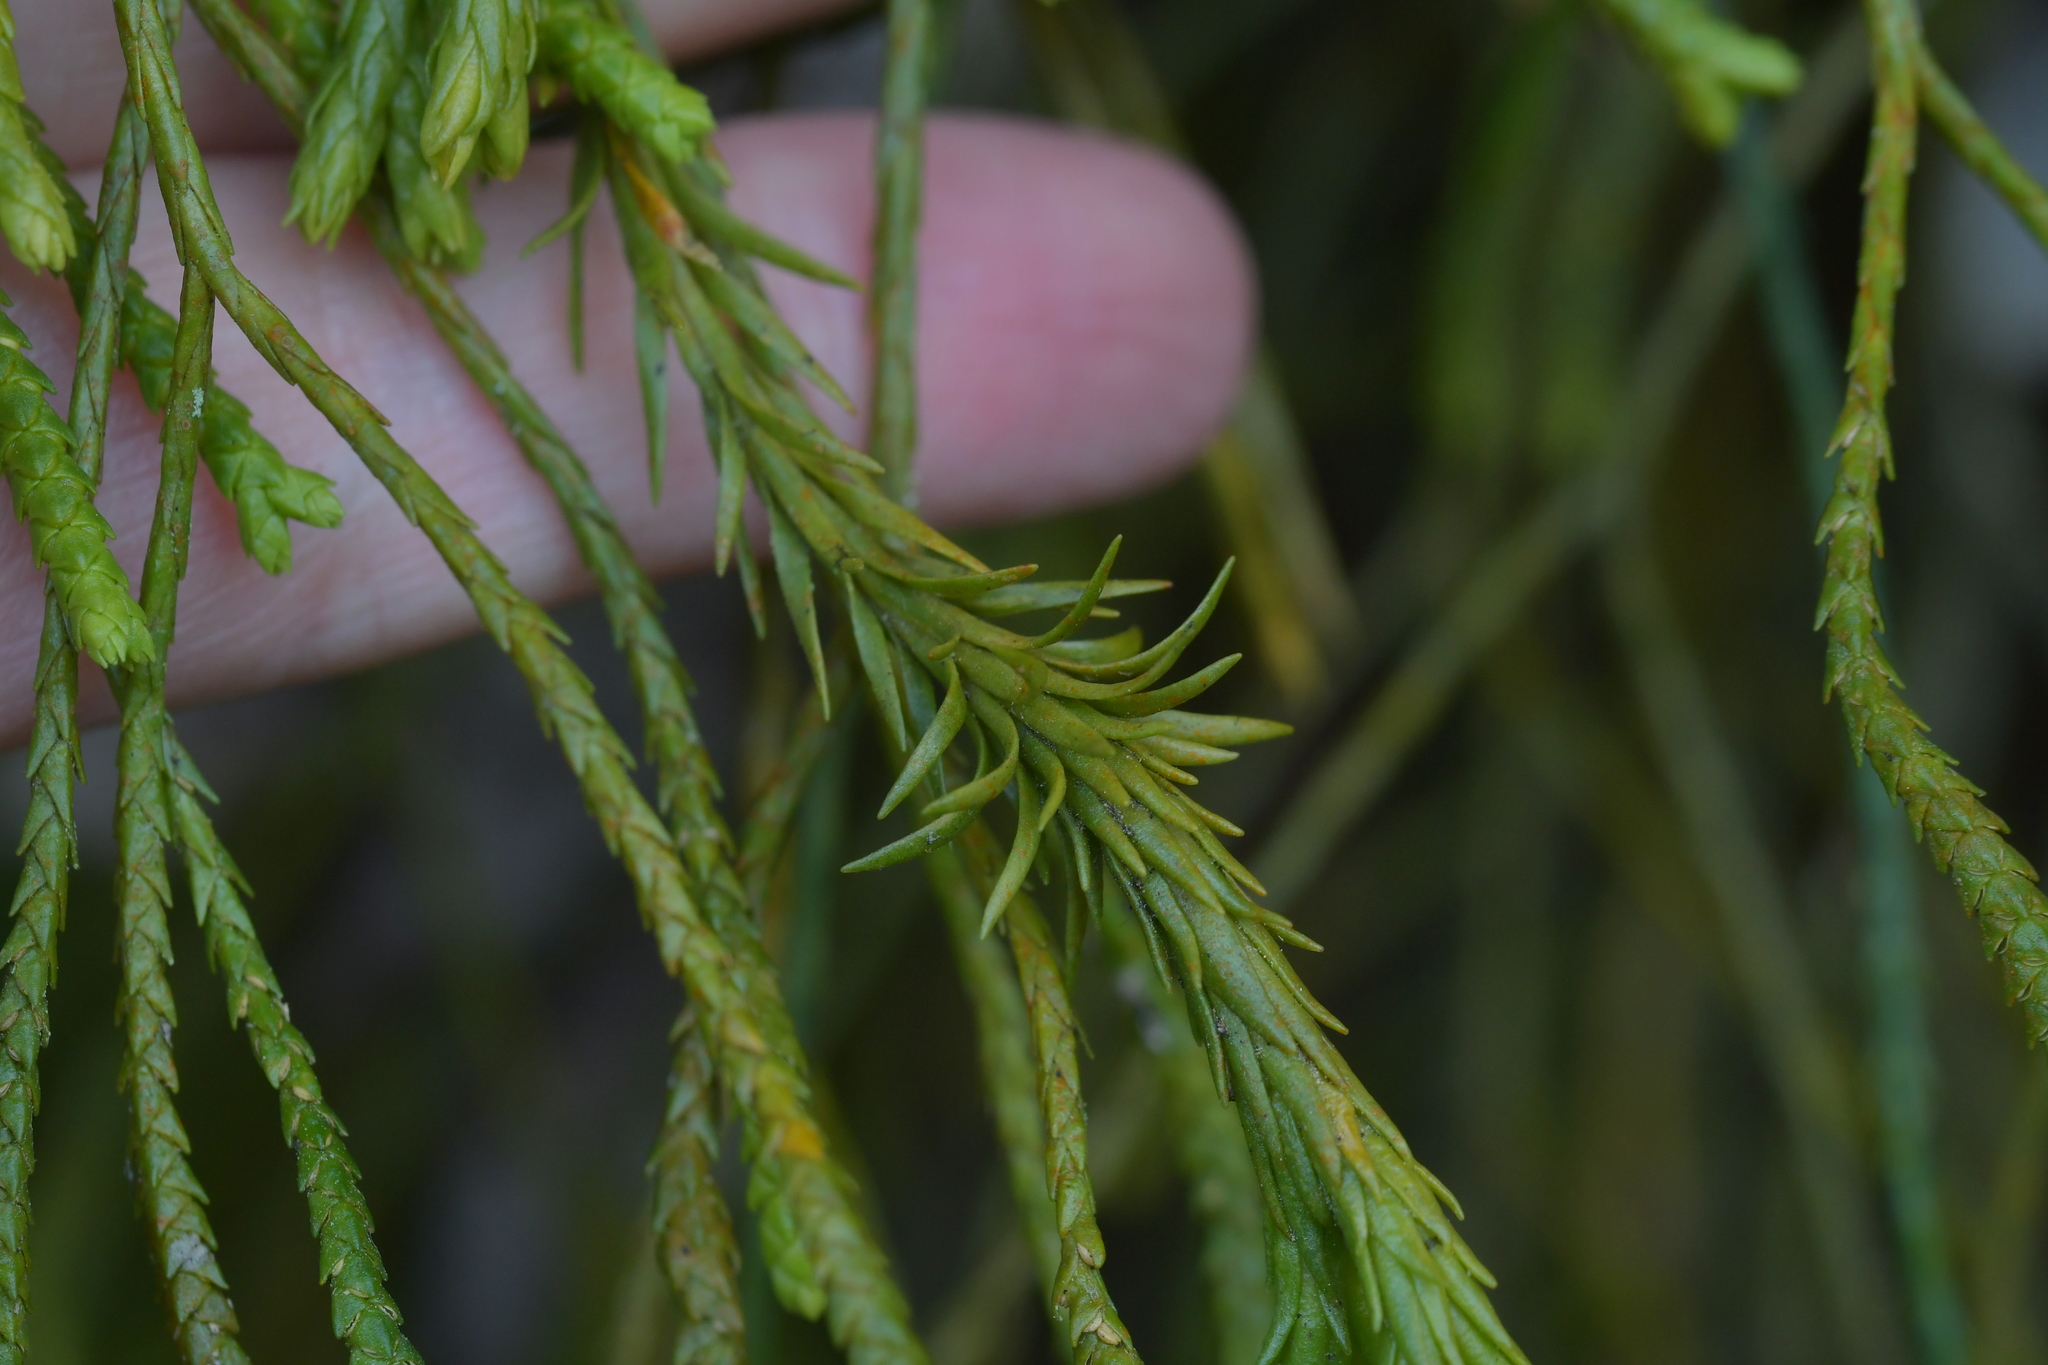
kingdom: Plantae
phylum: Tracheophyta
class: Lycopodiopsida
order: Lycopodiales
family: Lycopodiaceae
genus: Phlegmariurus
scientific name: Phlegmariurus billardierei
